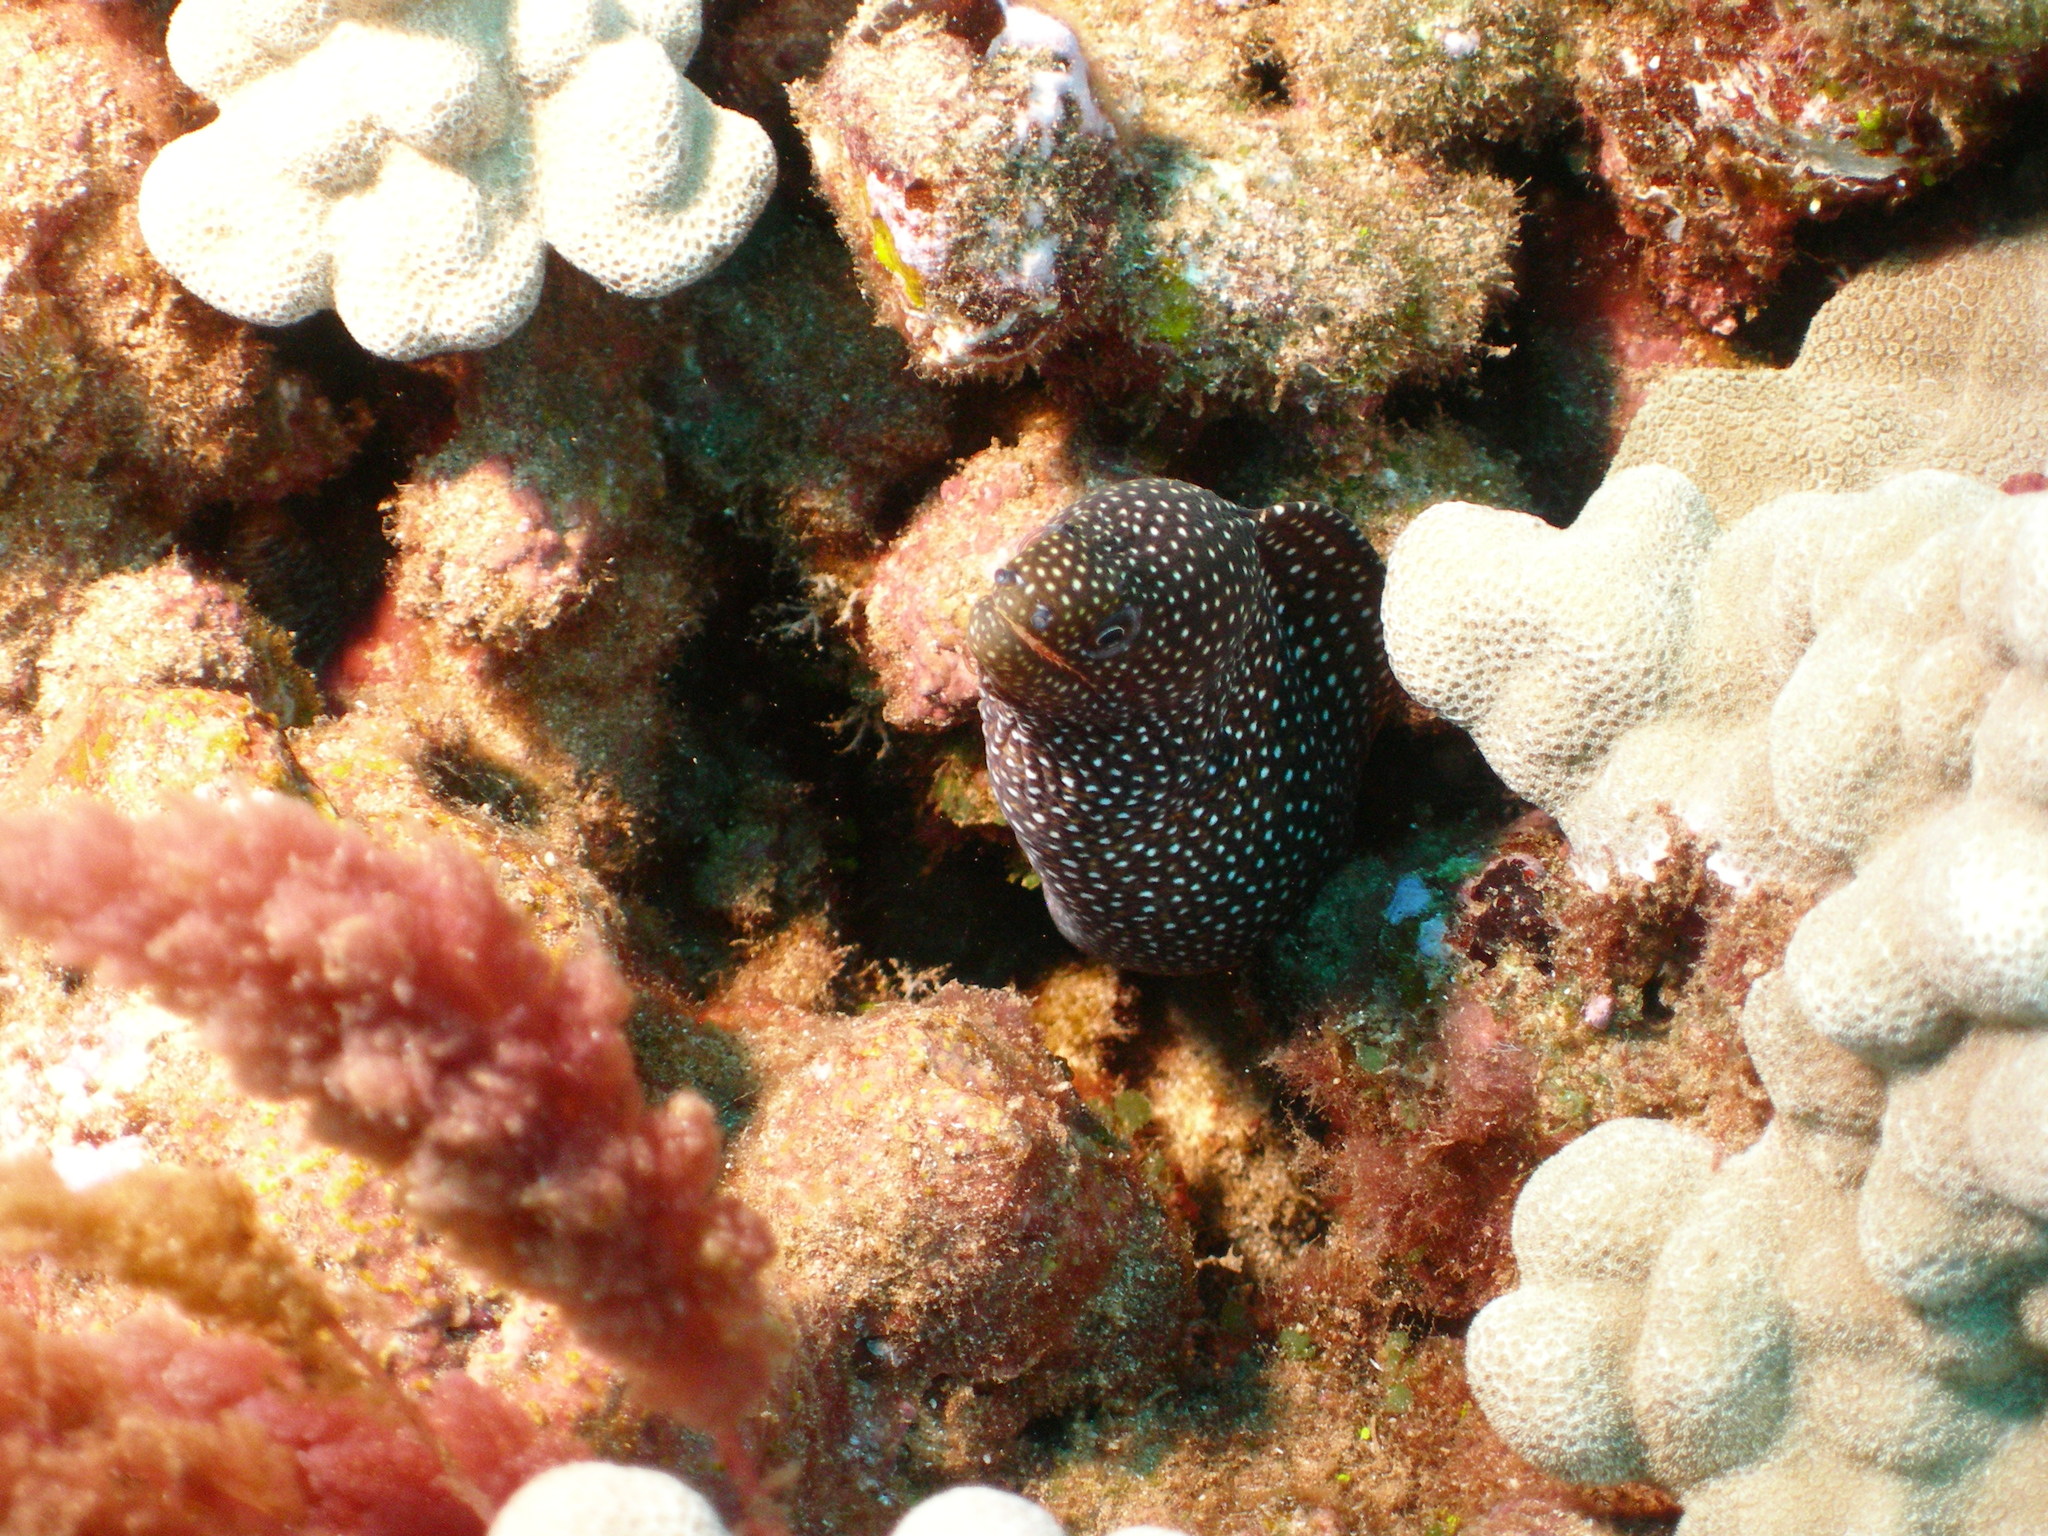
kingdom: Animalia
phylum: Chordata
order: Anguilliformes
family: Muraenidae
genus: Gymnothorax
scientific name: Gymnothorax meleagris
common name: Guineafowl moray
